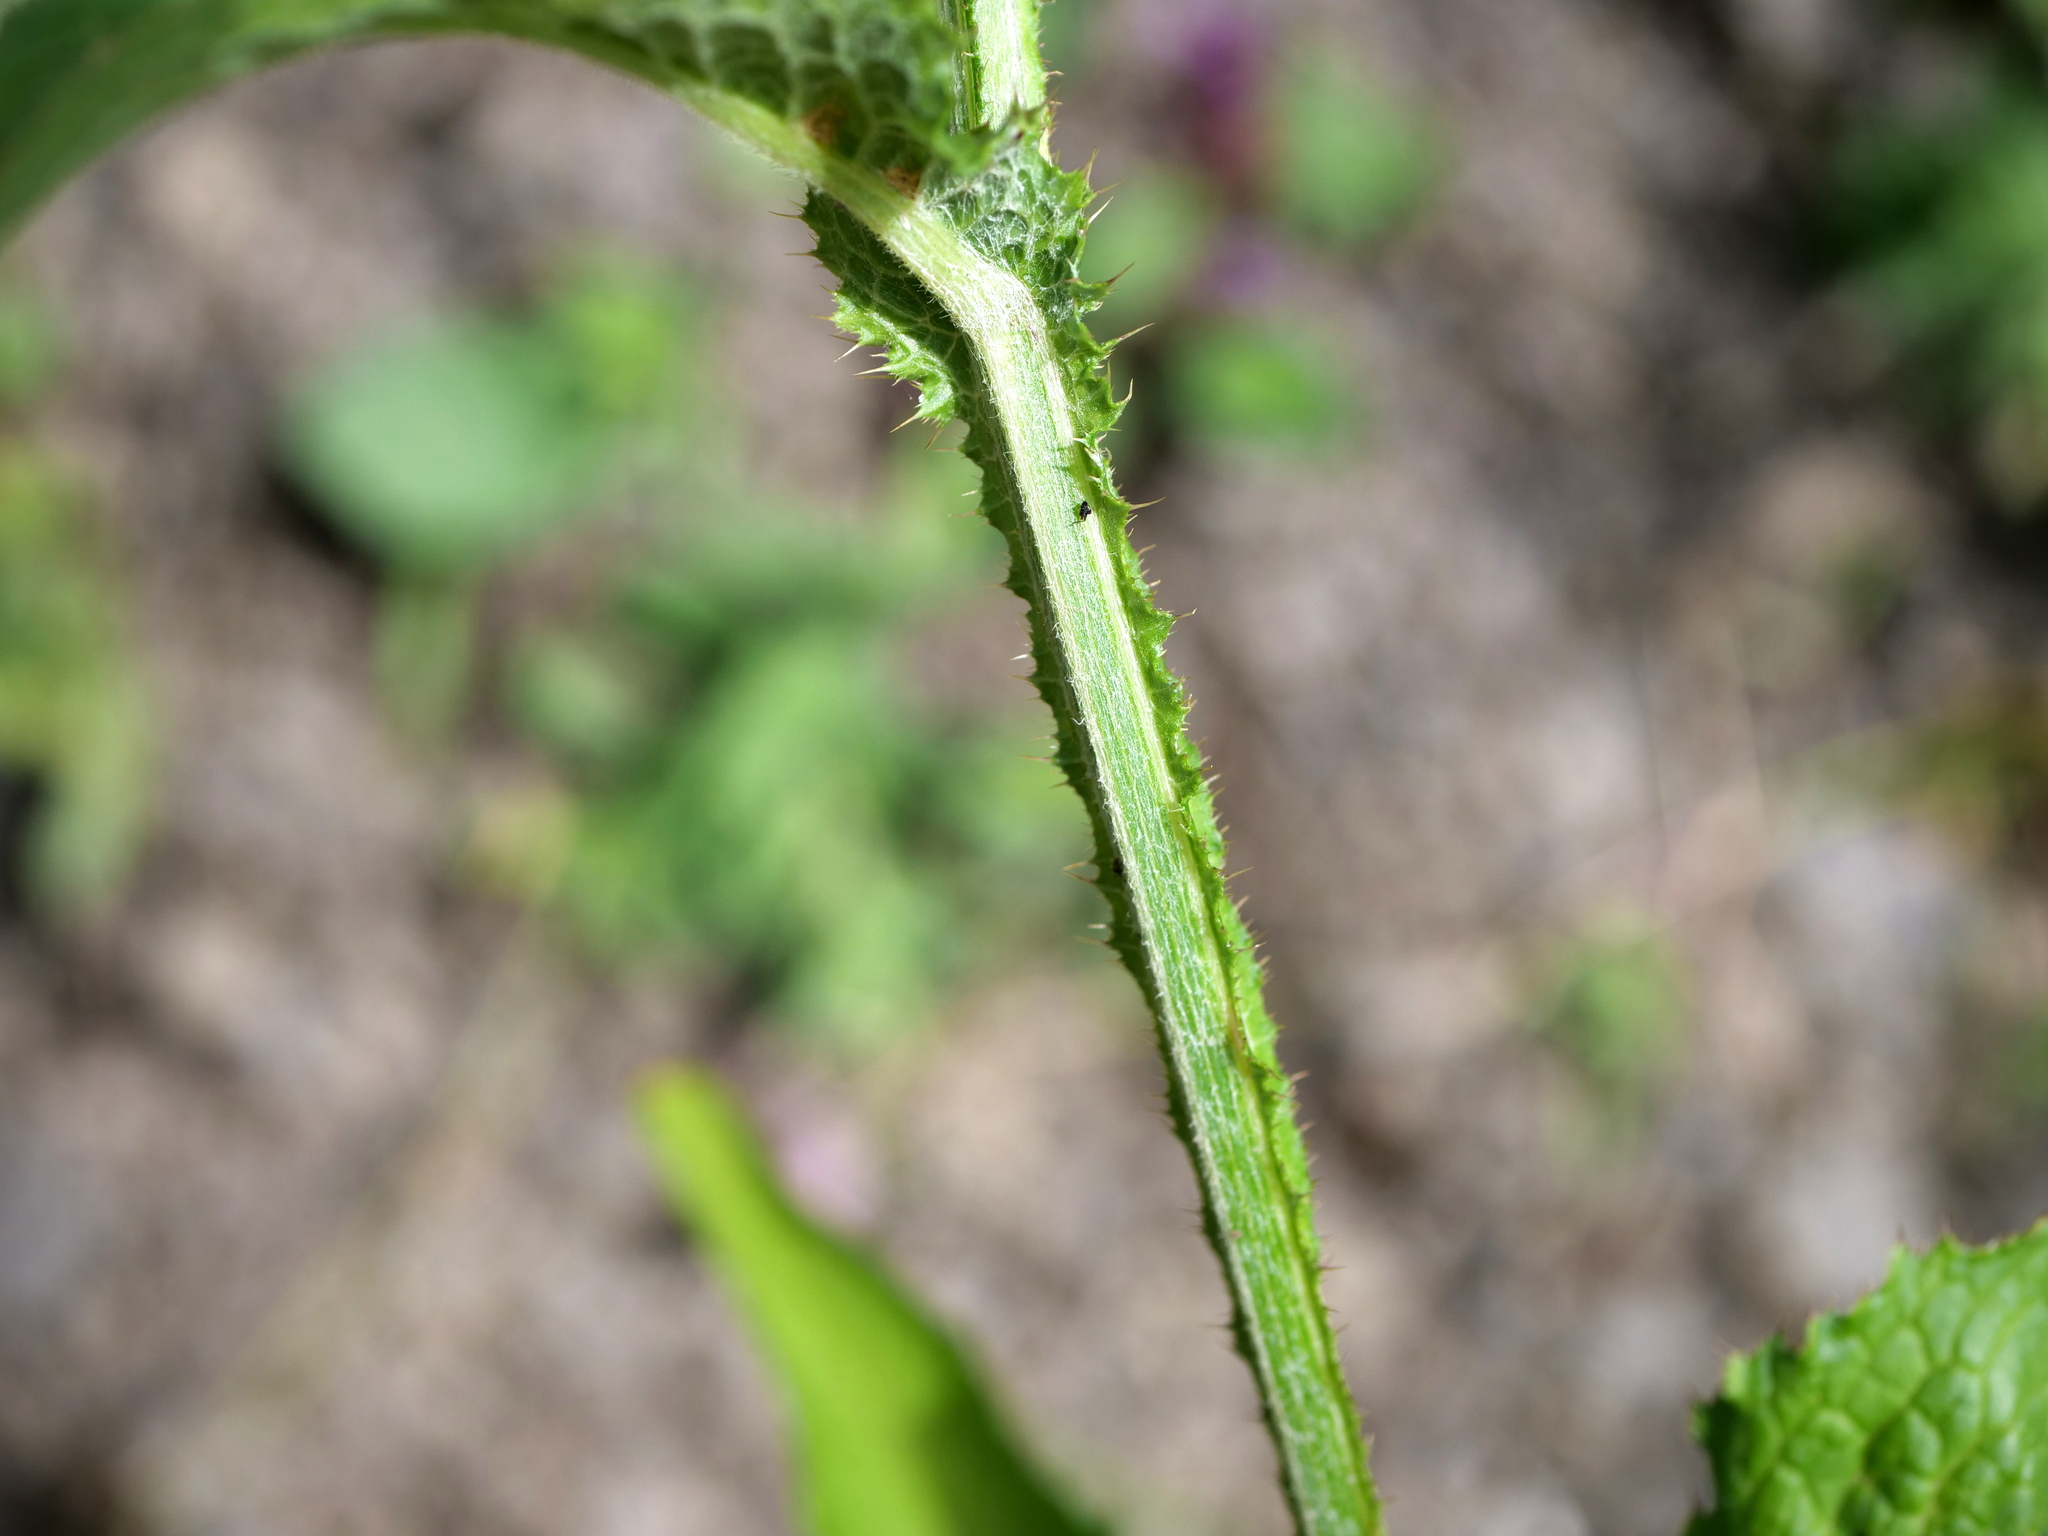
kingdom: Plantae
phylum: Tracheophyta
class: Magnoliopsida
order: Asterales
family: Asteraceae
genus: Carduus
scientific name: Carduus personata
